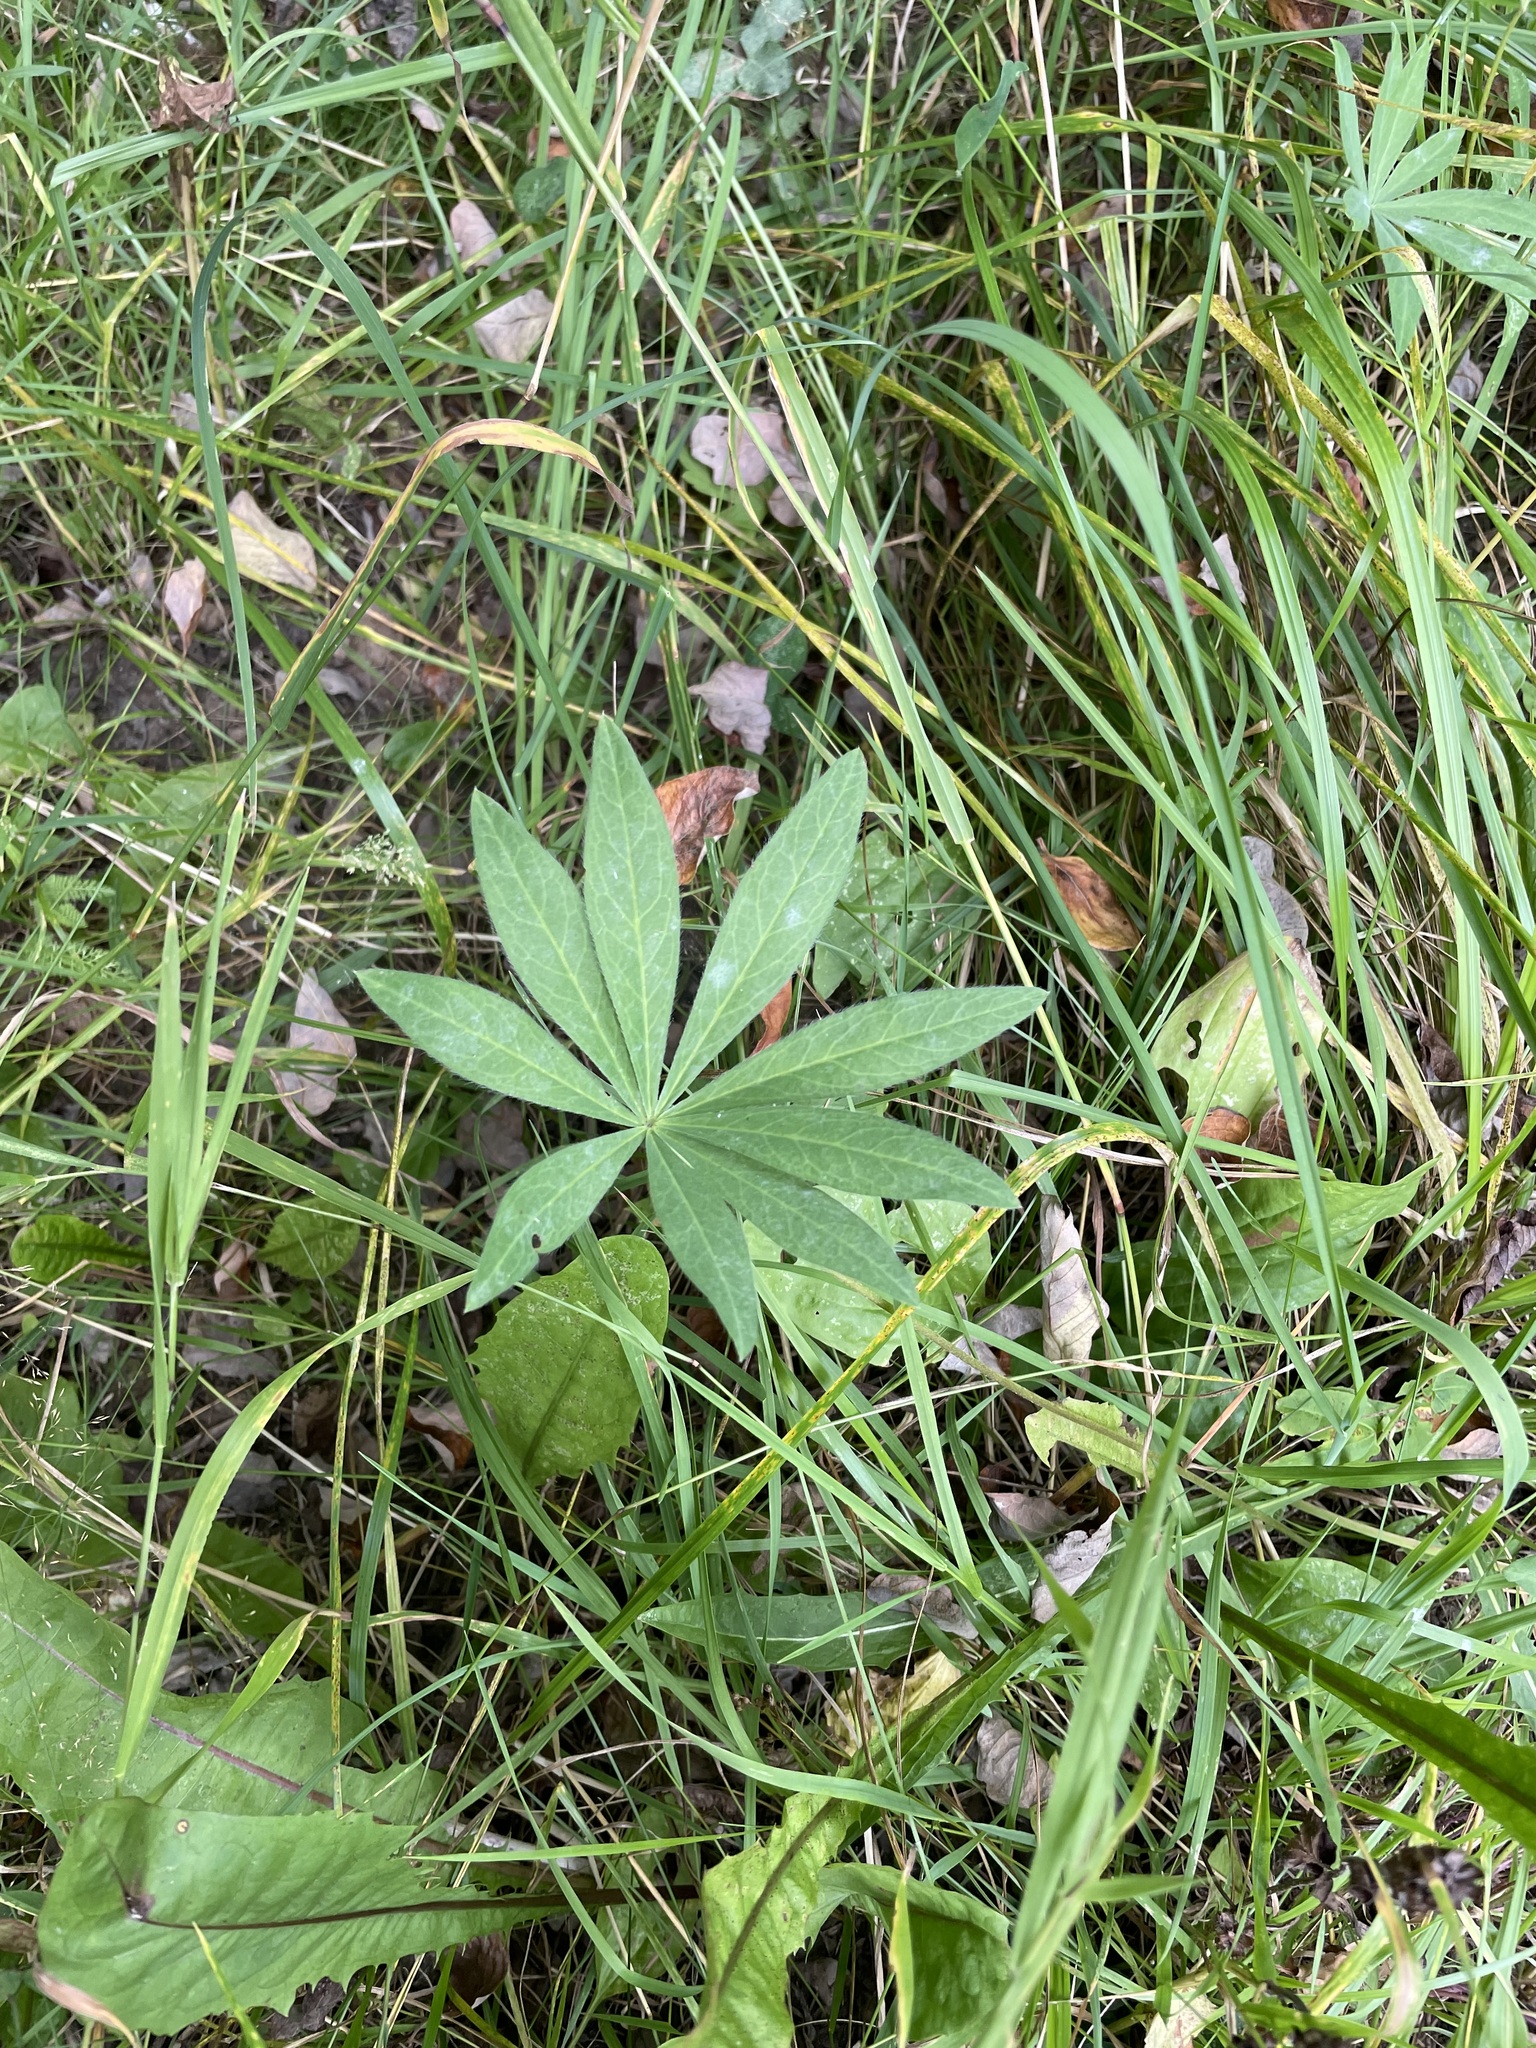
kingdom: Plantae
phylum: Tracheophyta
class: Magnoliopsida
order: Fabales
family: Fabaceae
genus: Lupinus
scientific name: Lupinus polyphyllus
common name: Garden lupin
